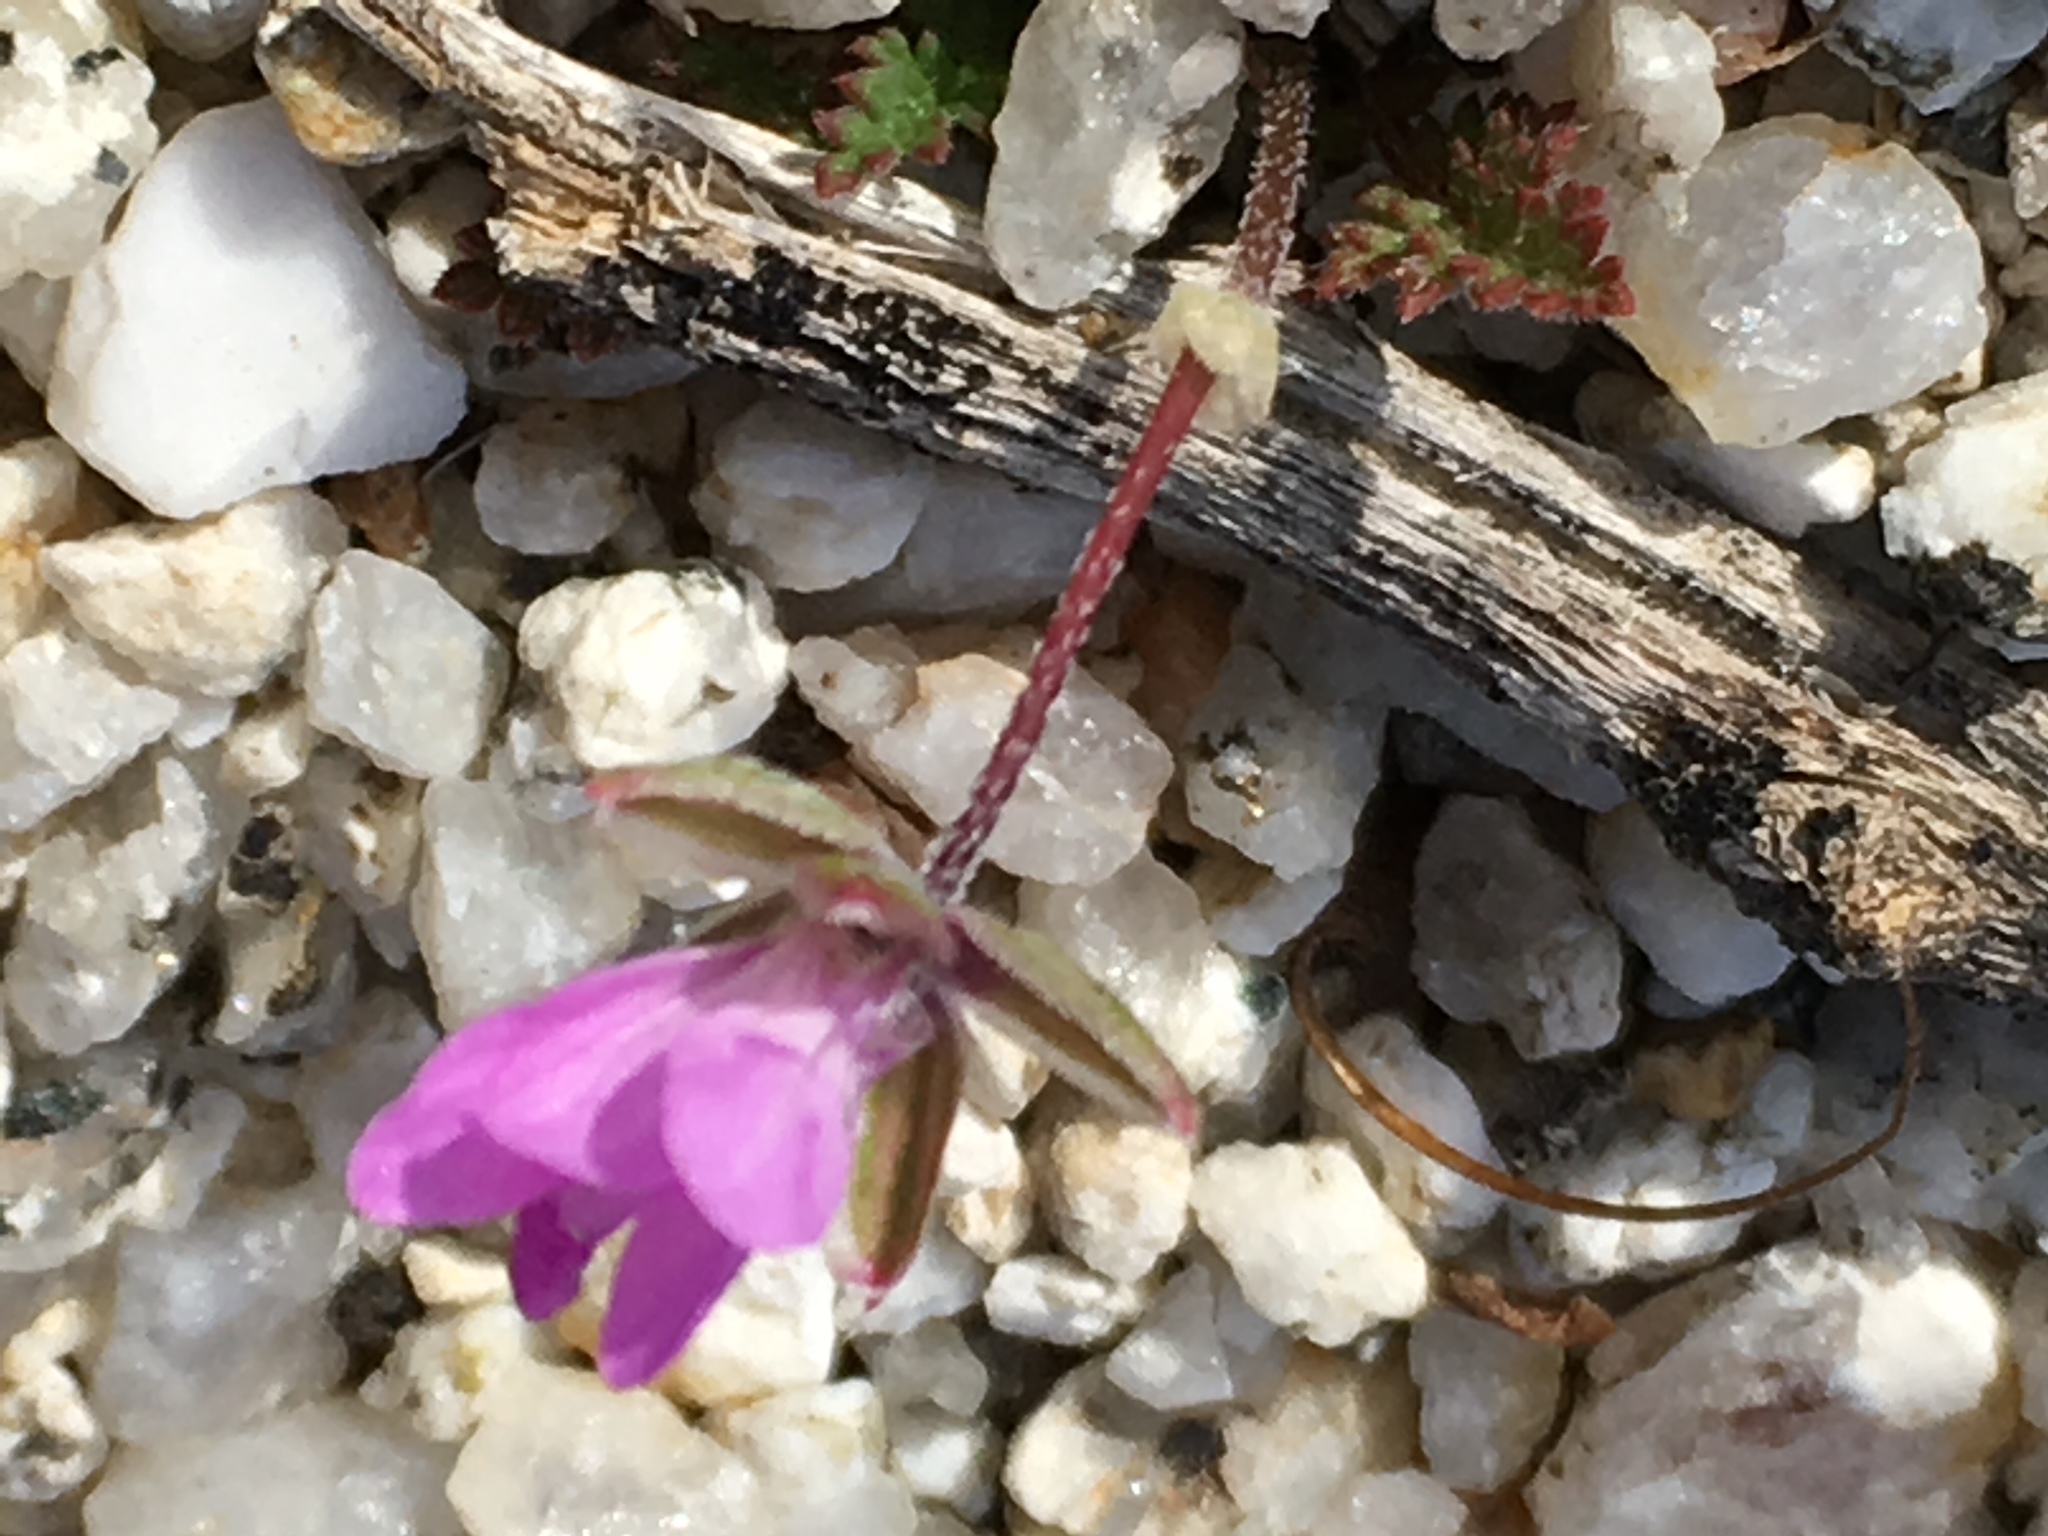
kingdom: Plantae
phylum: Tracheophyta
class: Magnoliopsida
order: Geraniales
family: Geraniaceae
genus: Erodium
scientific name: Erodium cicutarium
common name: Common stork's-bill
